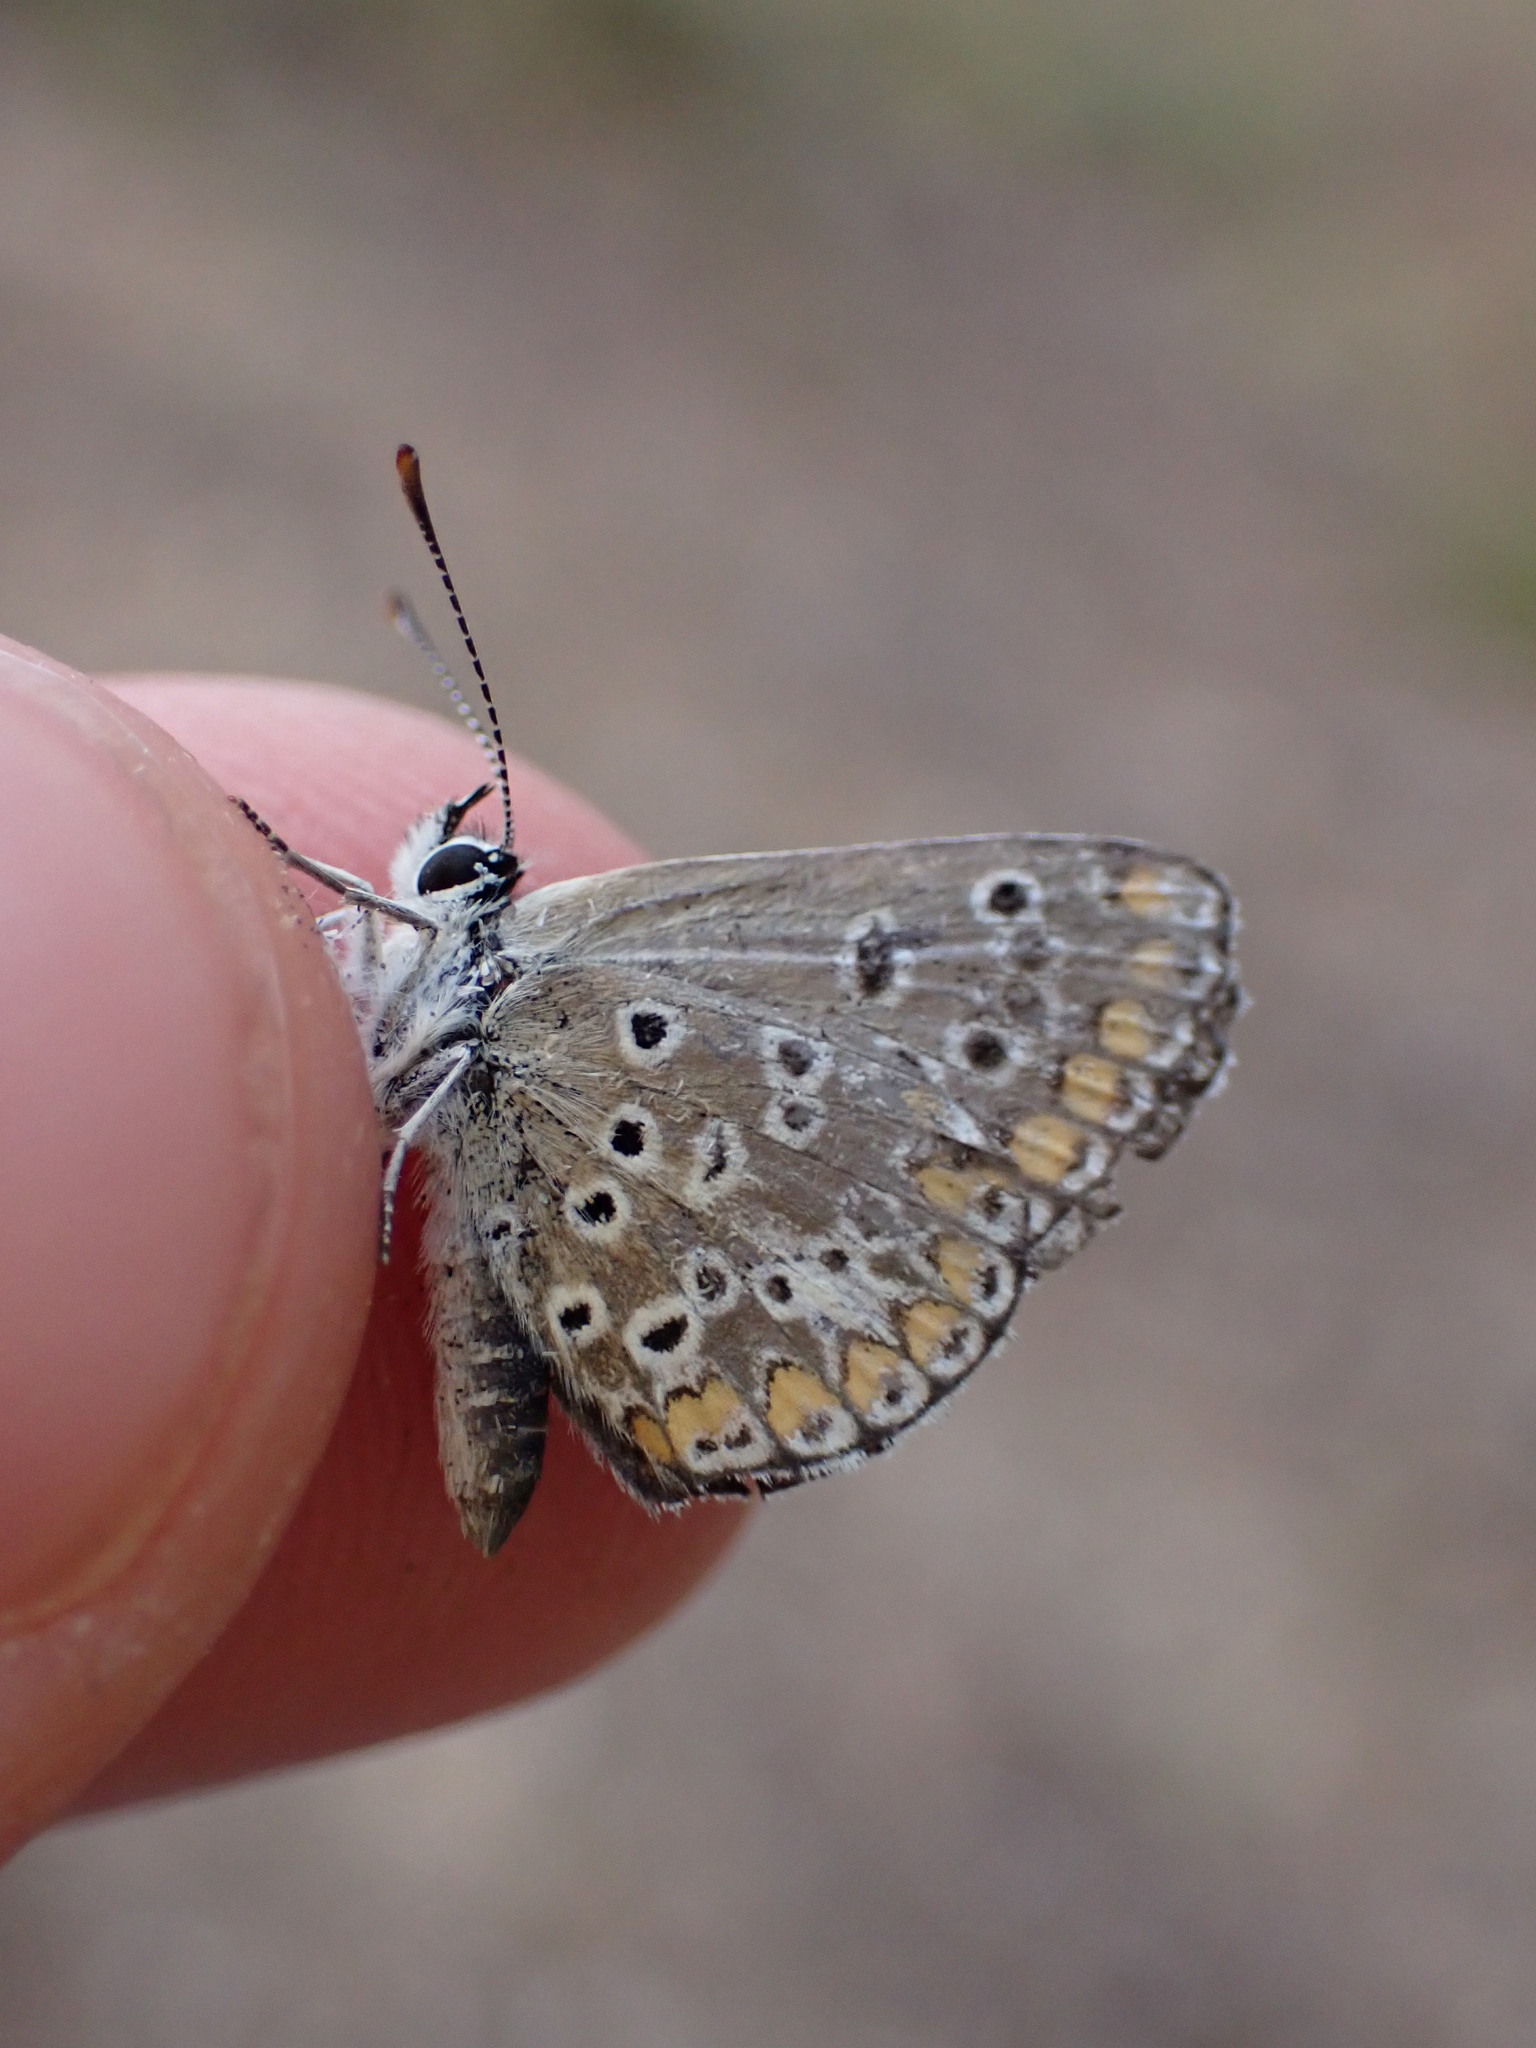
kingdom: Animalia
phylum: Arthropoda
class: Insecta
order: Lepidoptera
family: Lycaenidae
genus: Aricia
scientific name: Aricia agestis
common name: Brown argus
